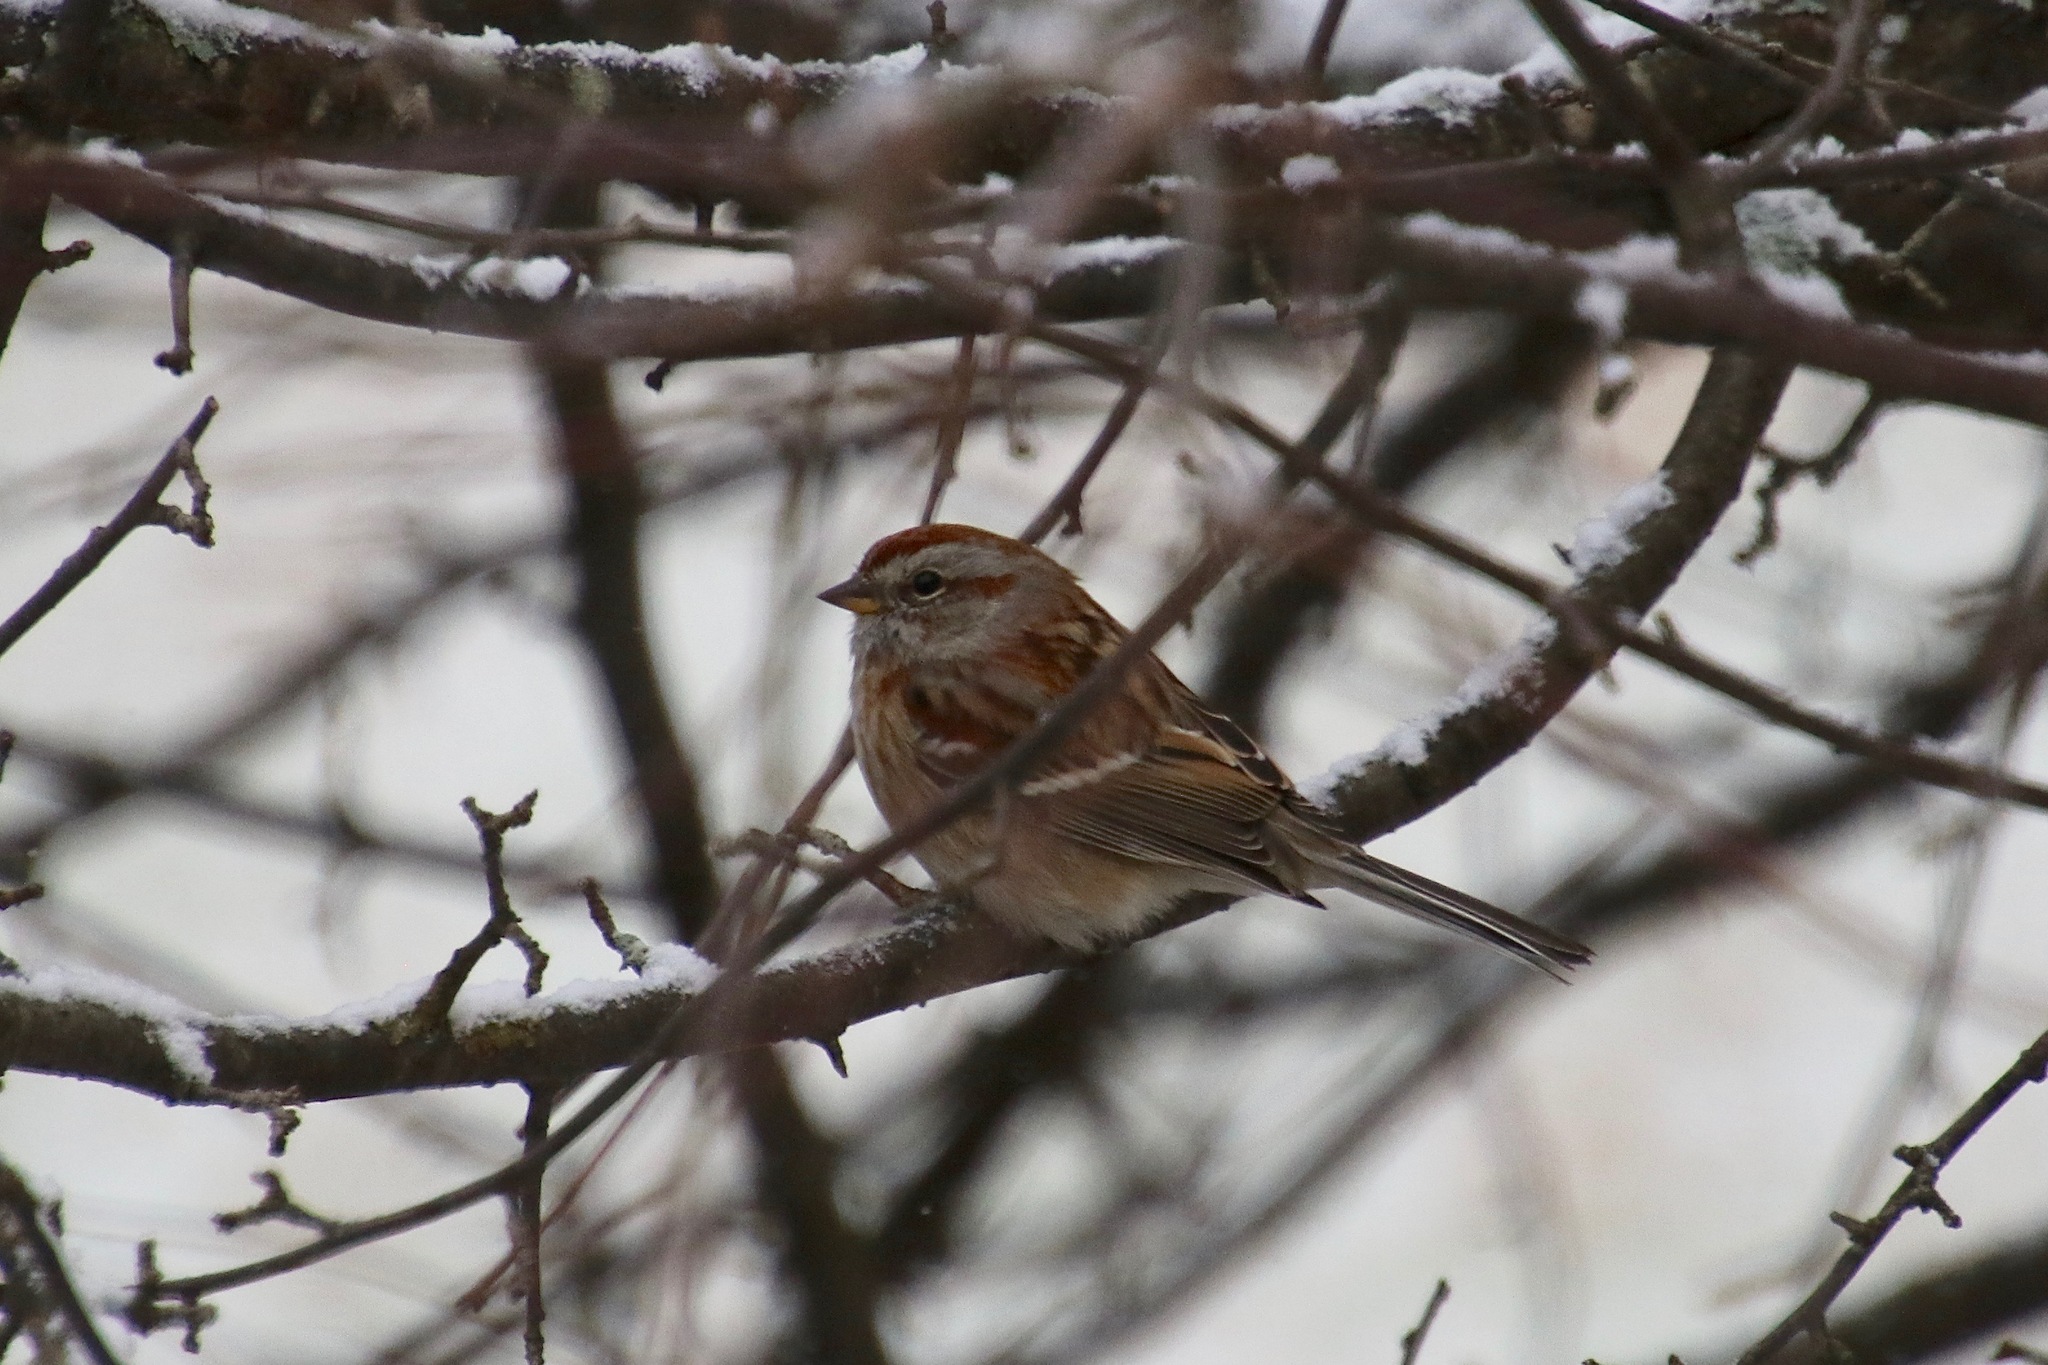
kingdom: Animalia
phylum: Chordata
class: Aves
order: Passeriformes
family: Passerellidae
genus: Spizelloides
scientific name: Spizelloides arborea
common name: American tree sparrow
